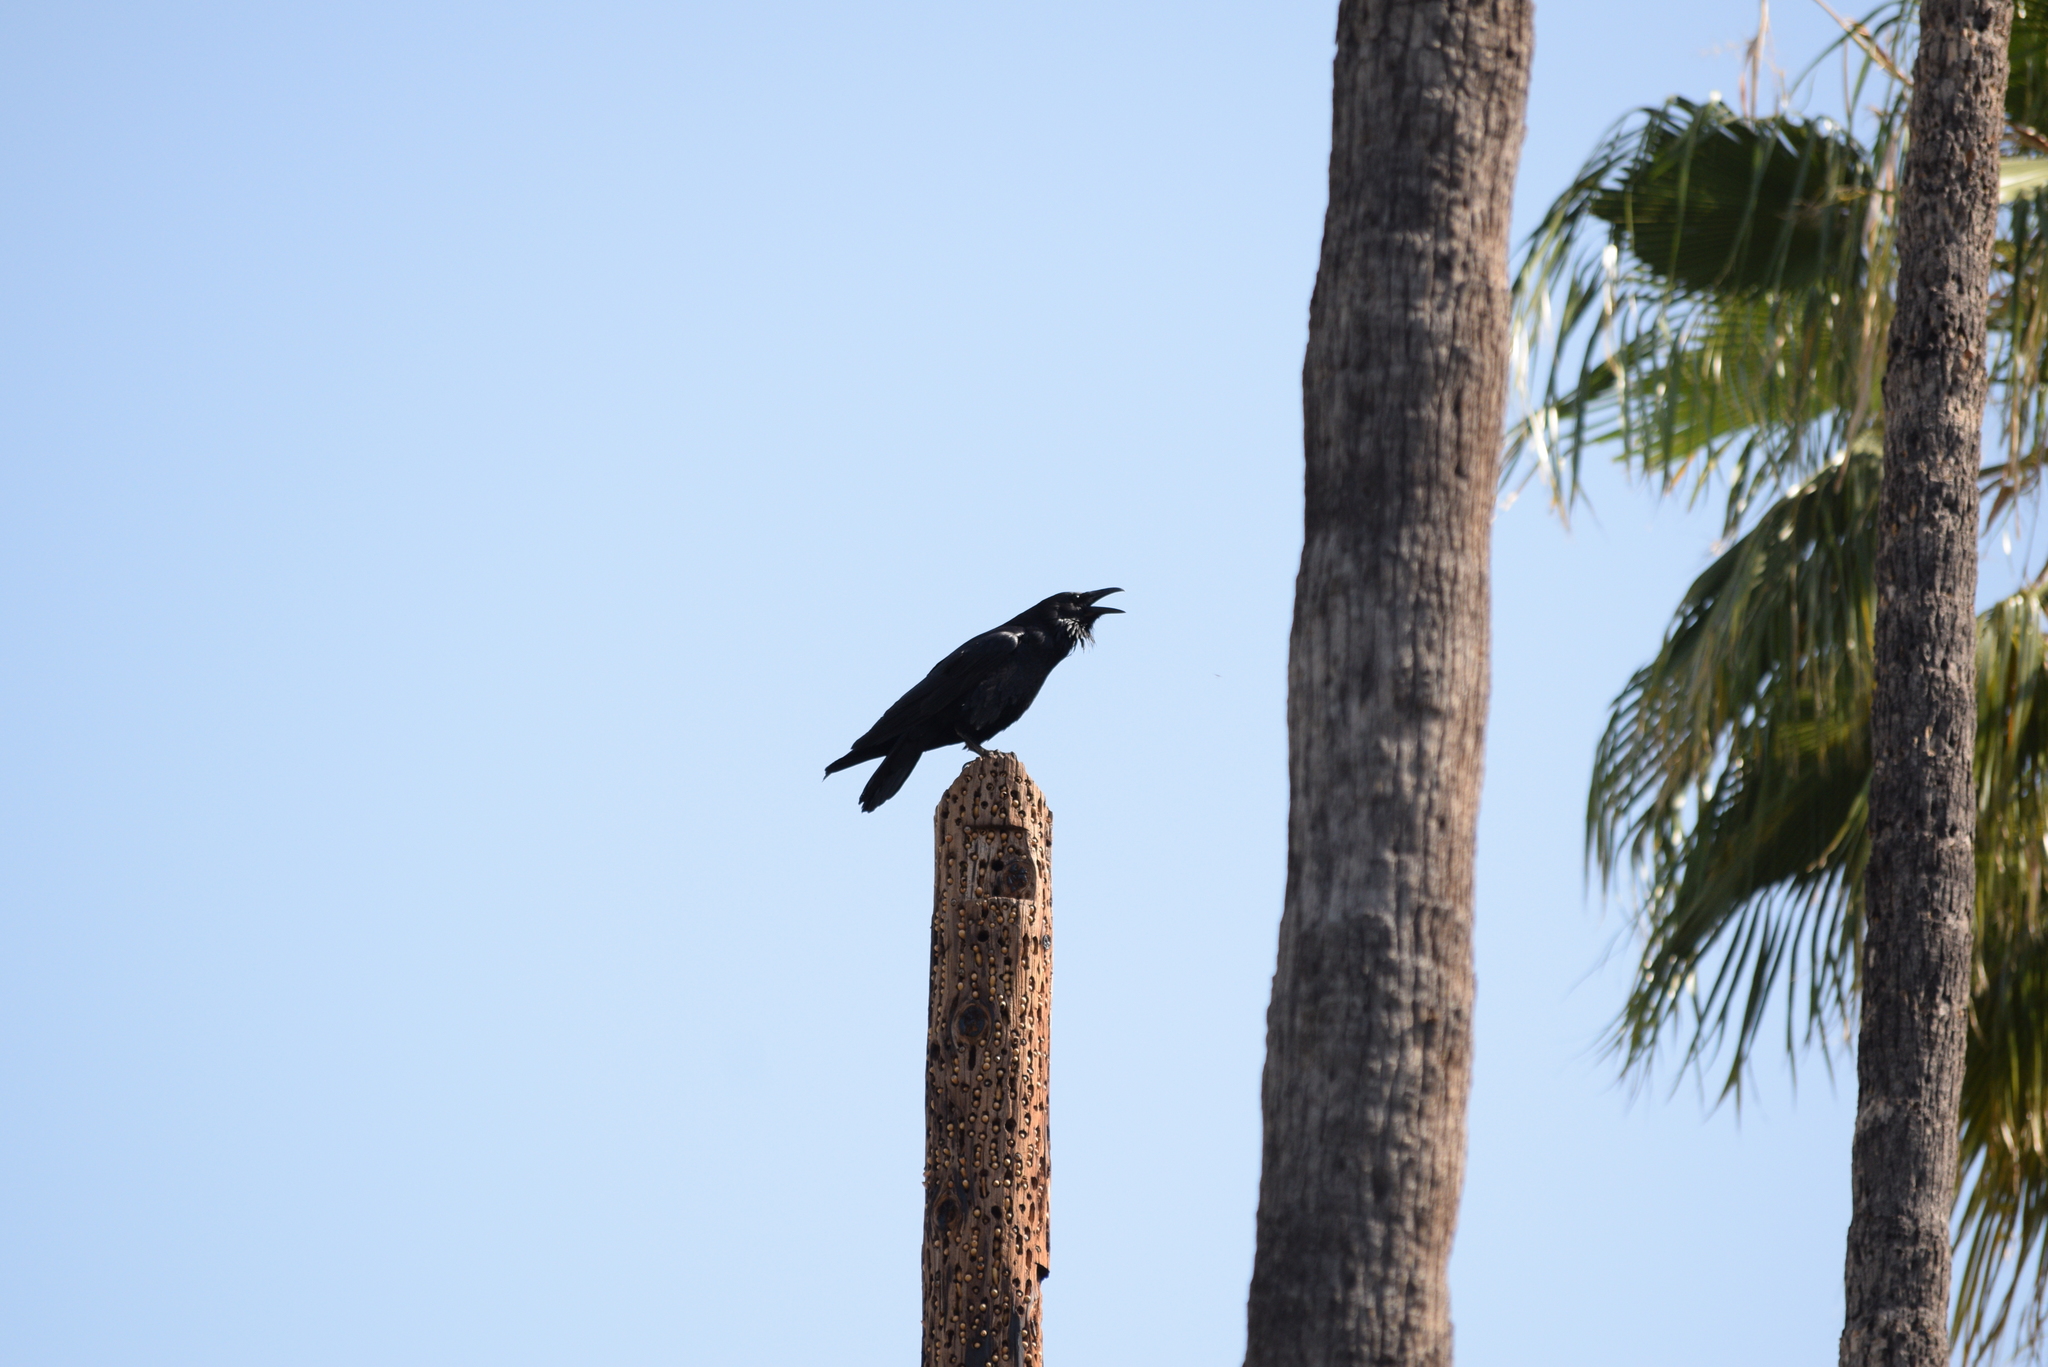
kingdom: Animalia
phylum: Chordata
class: Aves
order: Passeriformes
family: Corvidae
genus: Corvus
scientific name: Corvus corax
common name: Common raven
